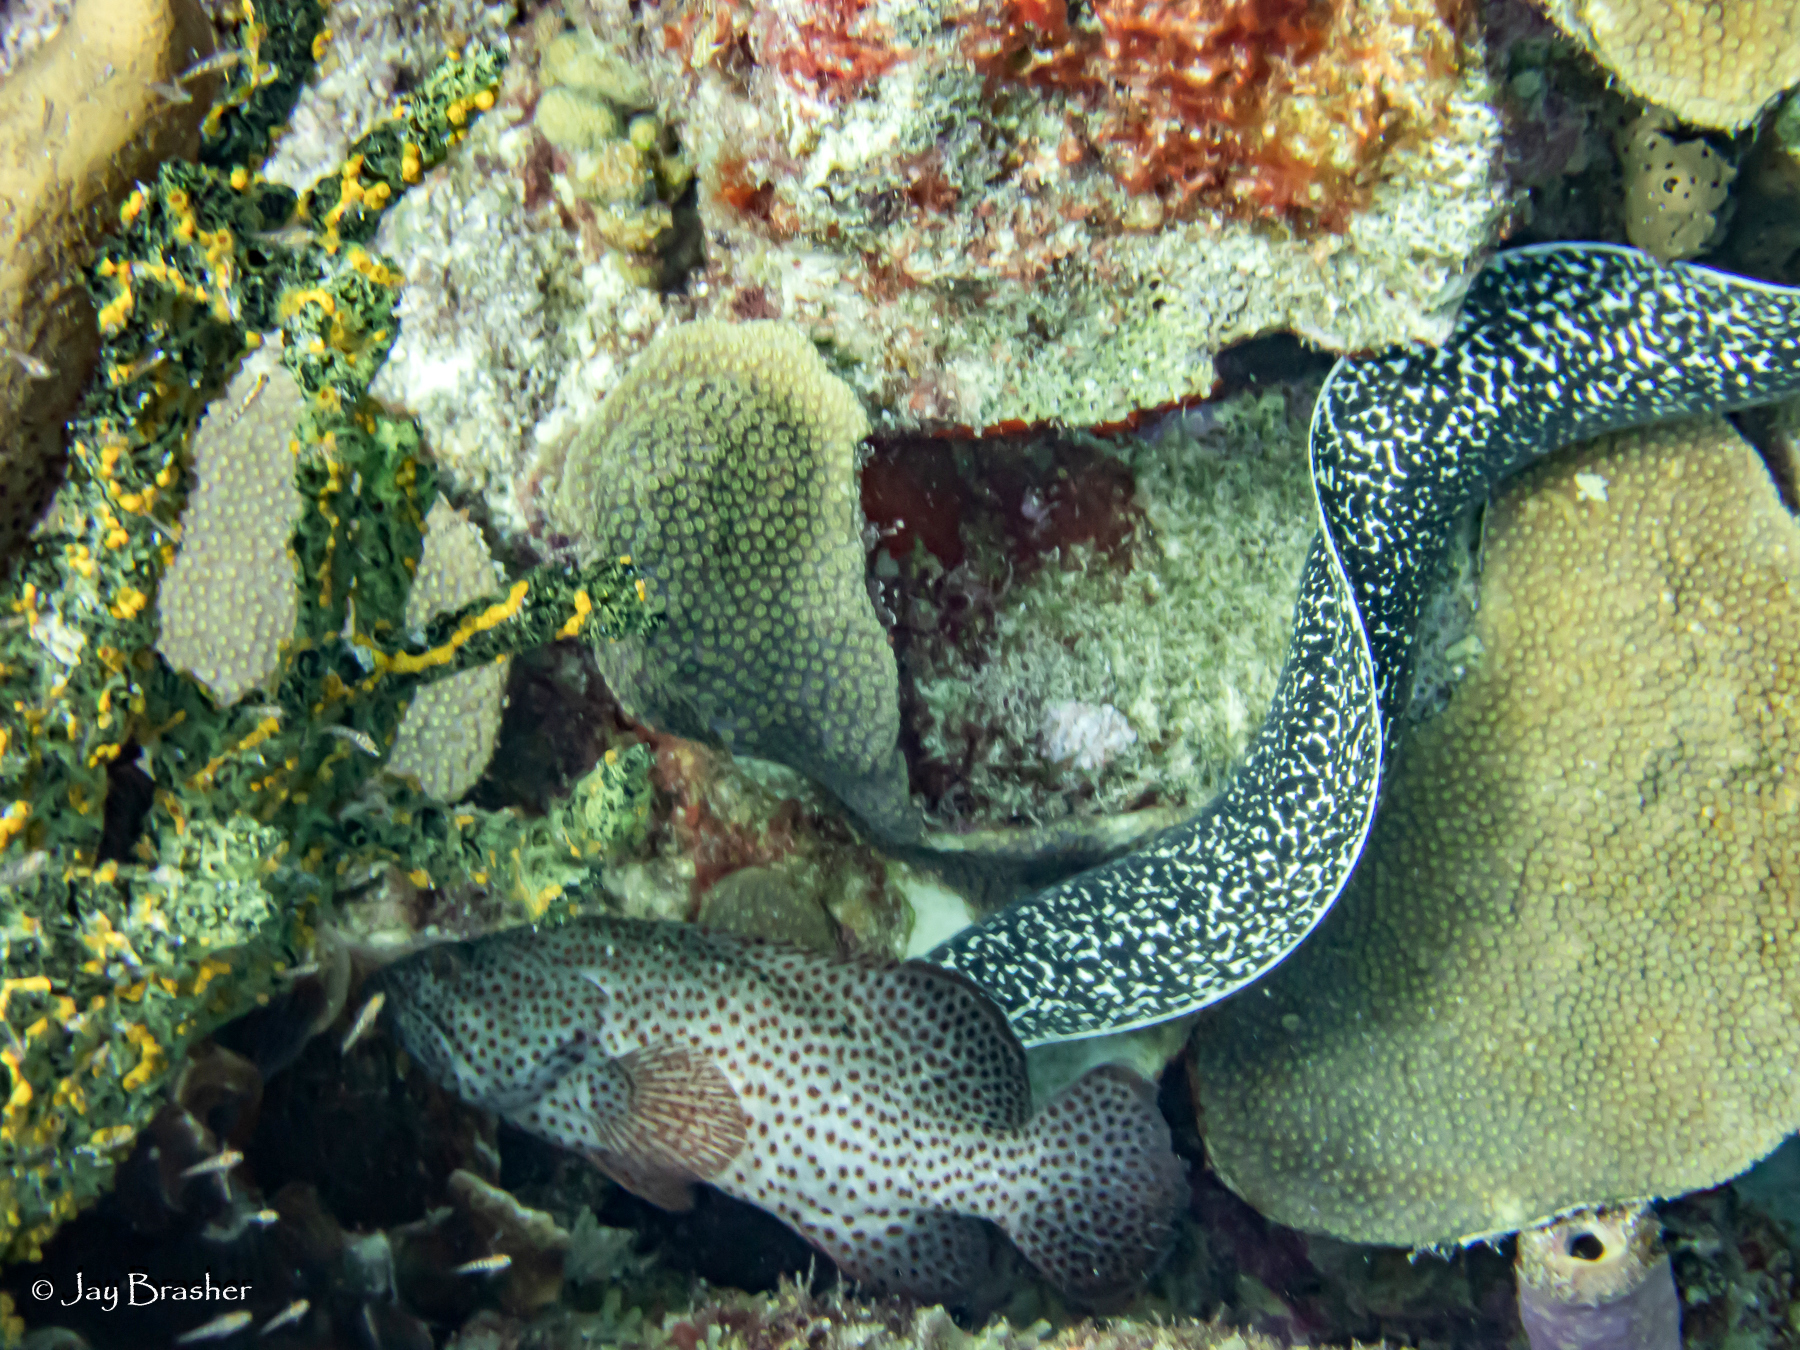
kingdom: Animalia
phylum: Chordata
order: Anguilliformes
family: Muraenidae
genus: Gymnothorax
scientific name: Gymnothorax moringa
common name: Spotted moray
